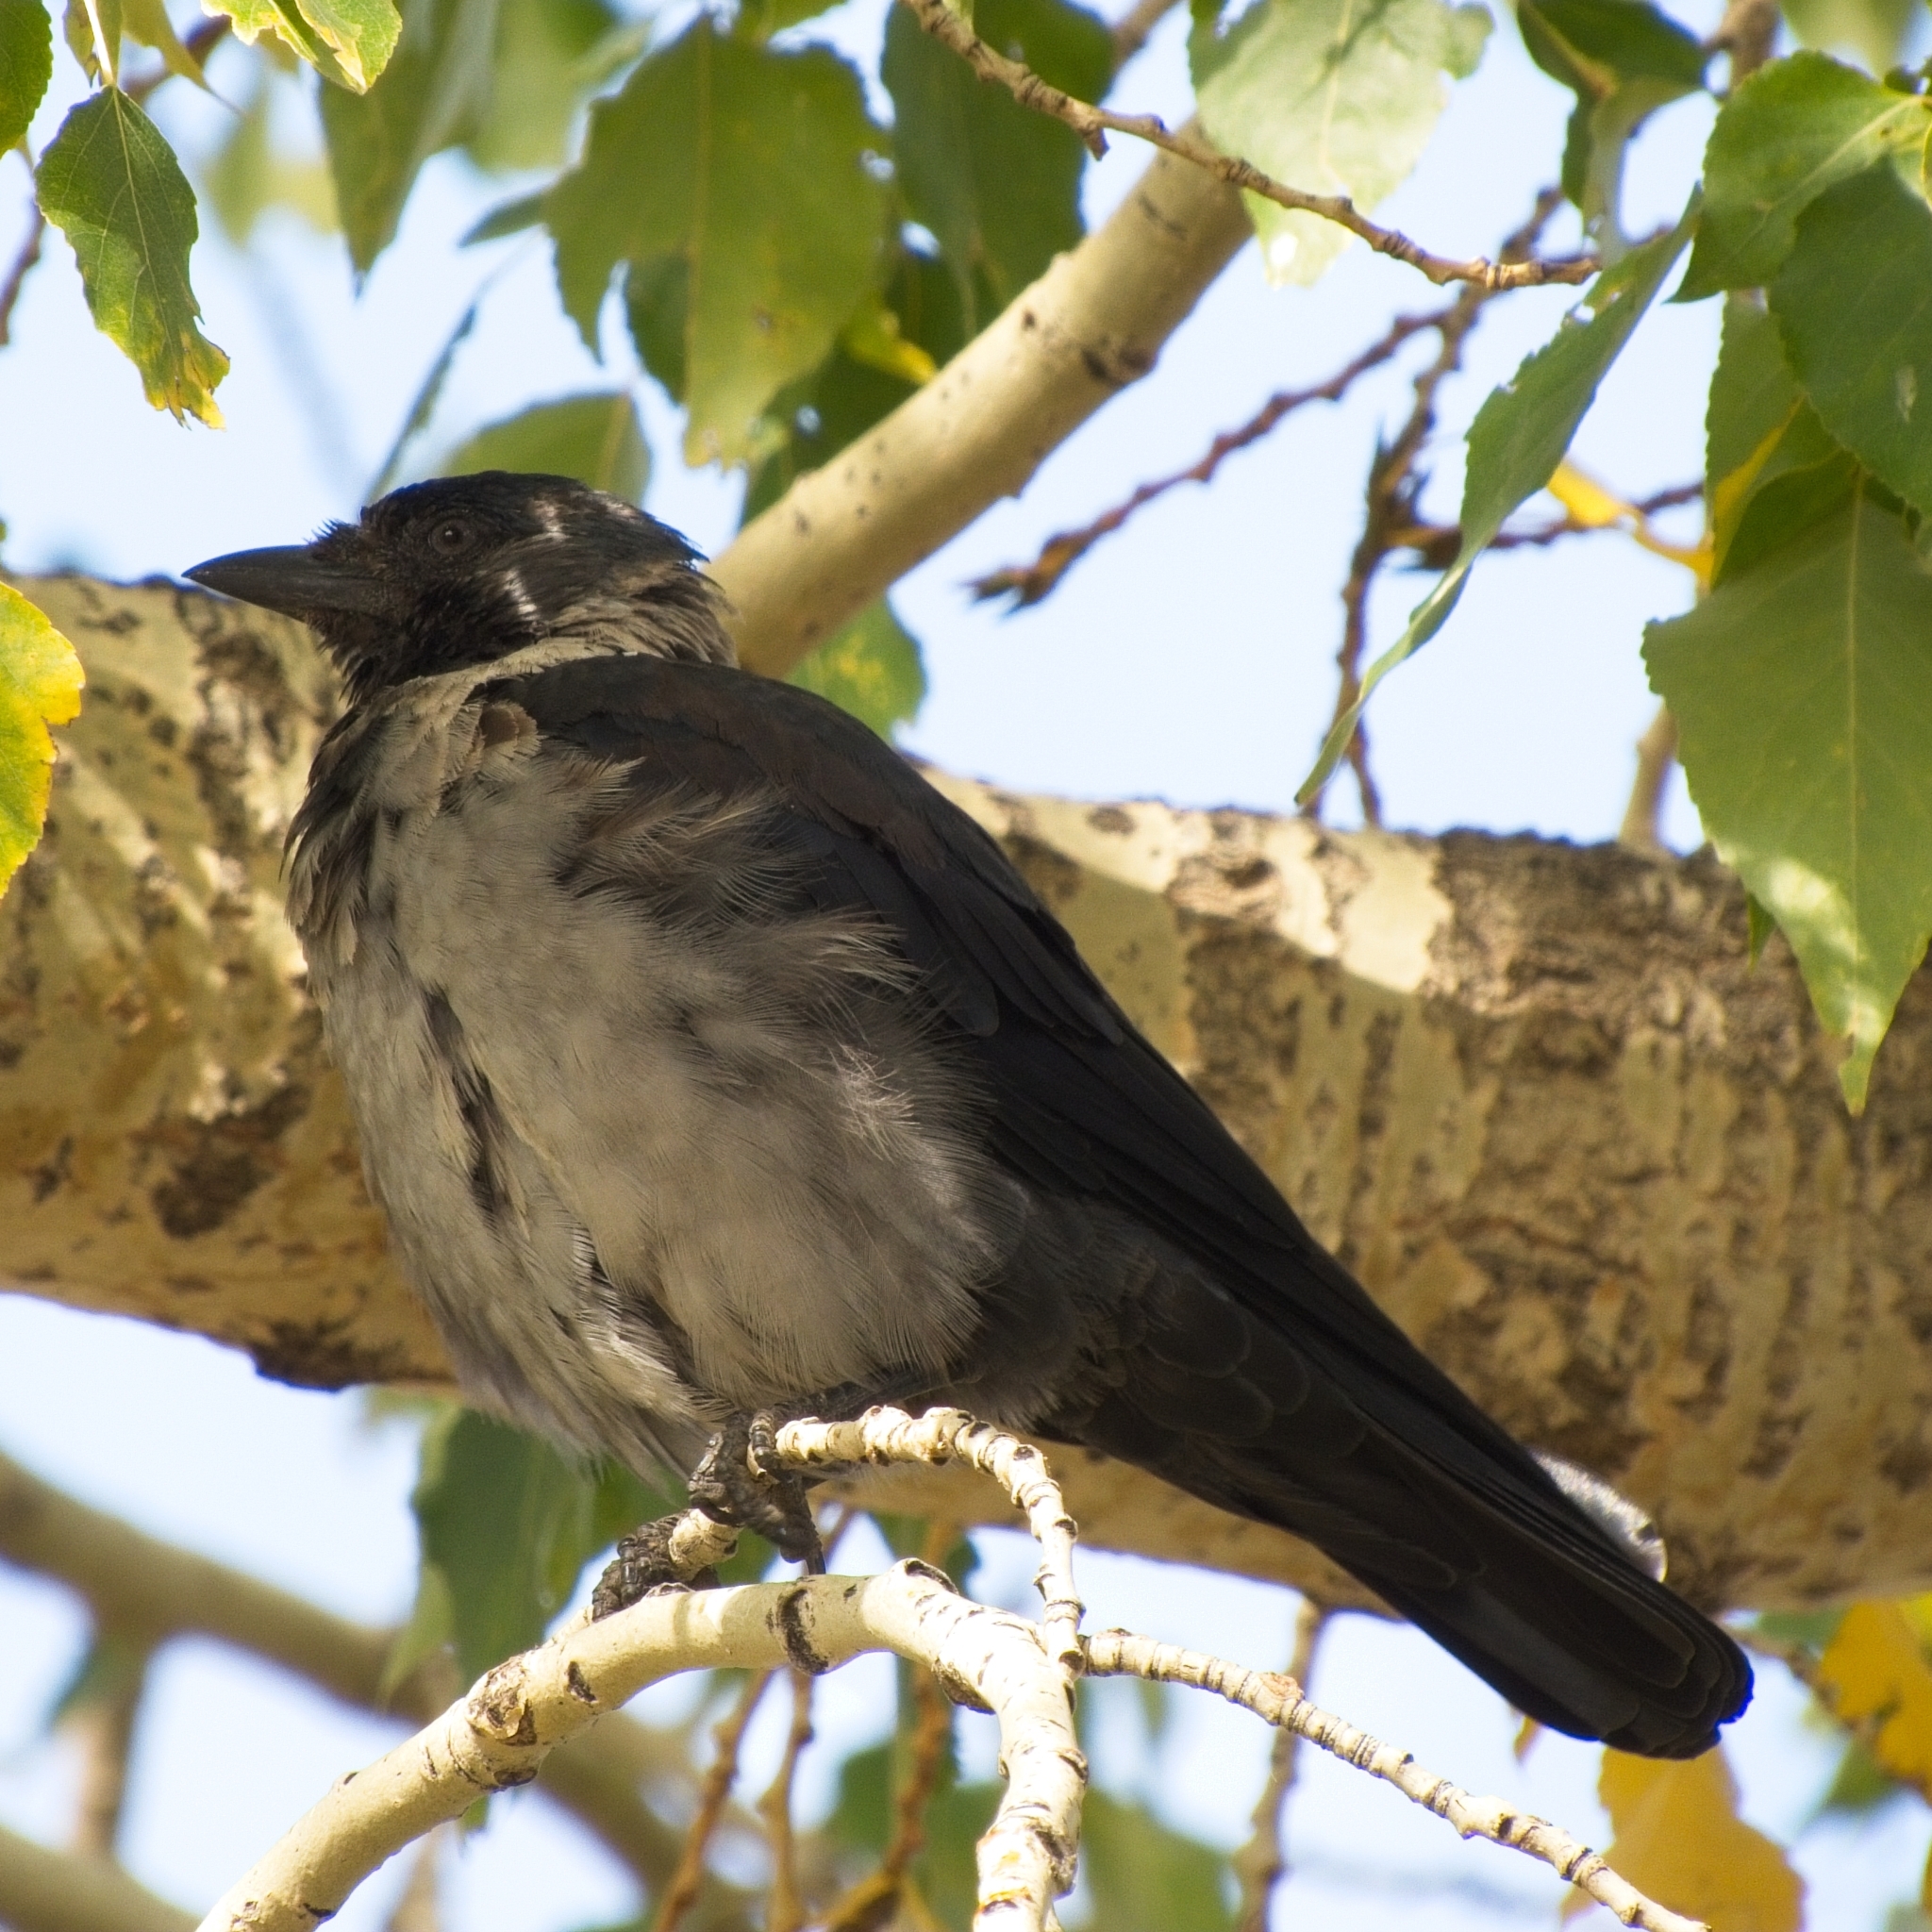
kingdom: Animalia
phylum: Chordata
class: Aves
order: Passeriformes
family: Corvidae
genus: Coloeus
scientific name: Coloeus dauuricus
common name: Daurian jackdaw
